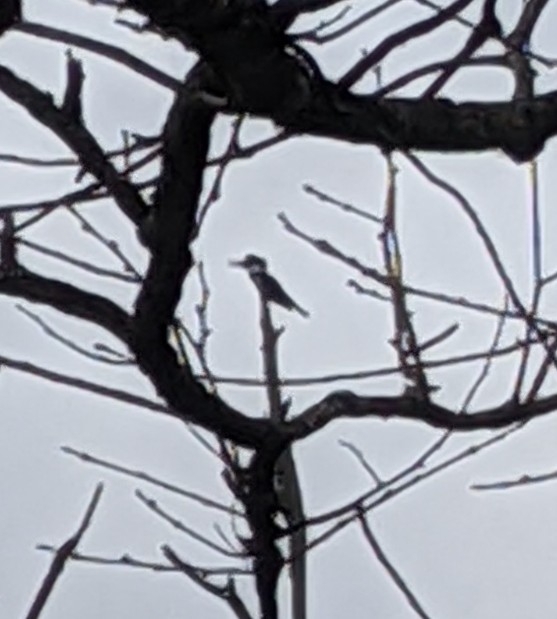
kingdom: Animalia
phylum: Chordata
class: Aves
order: Coraciiformes
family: Alcedinidae
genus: Megaceryle
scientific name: Megaceryle alcyon
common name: Belted kingfisher
